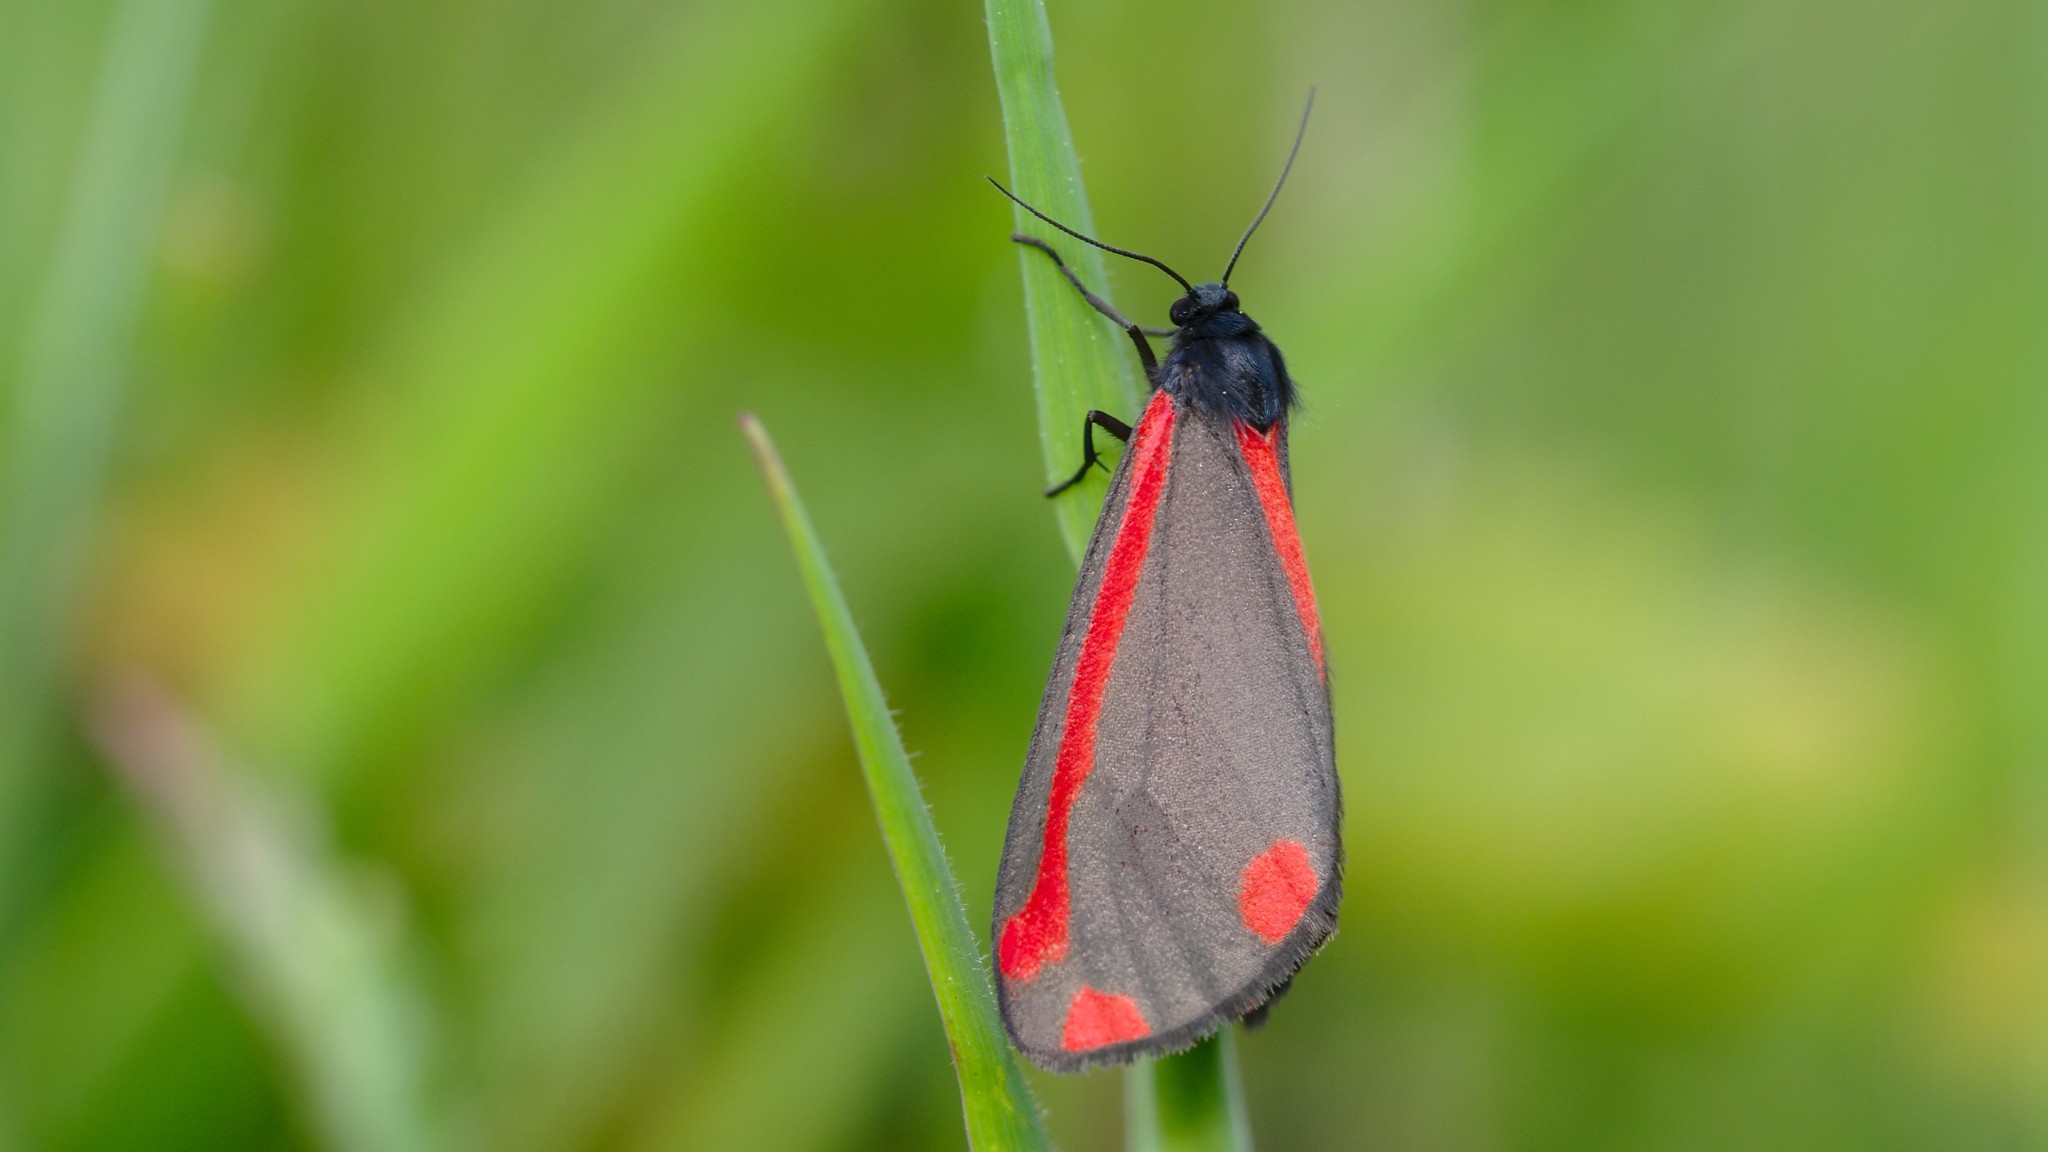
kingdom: Animalia
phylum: Arthropoda
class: Insecta
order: Lepidoptera
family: Erebidae
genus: Tyria
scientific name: Tyria jacobaeae
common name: Cinnabar
